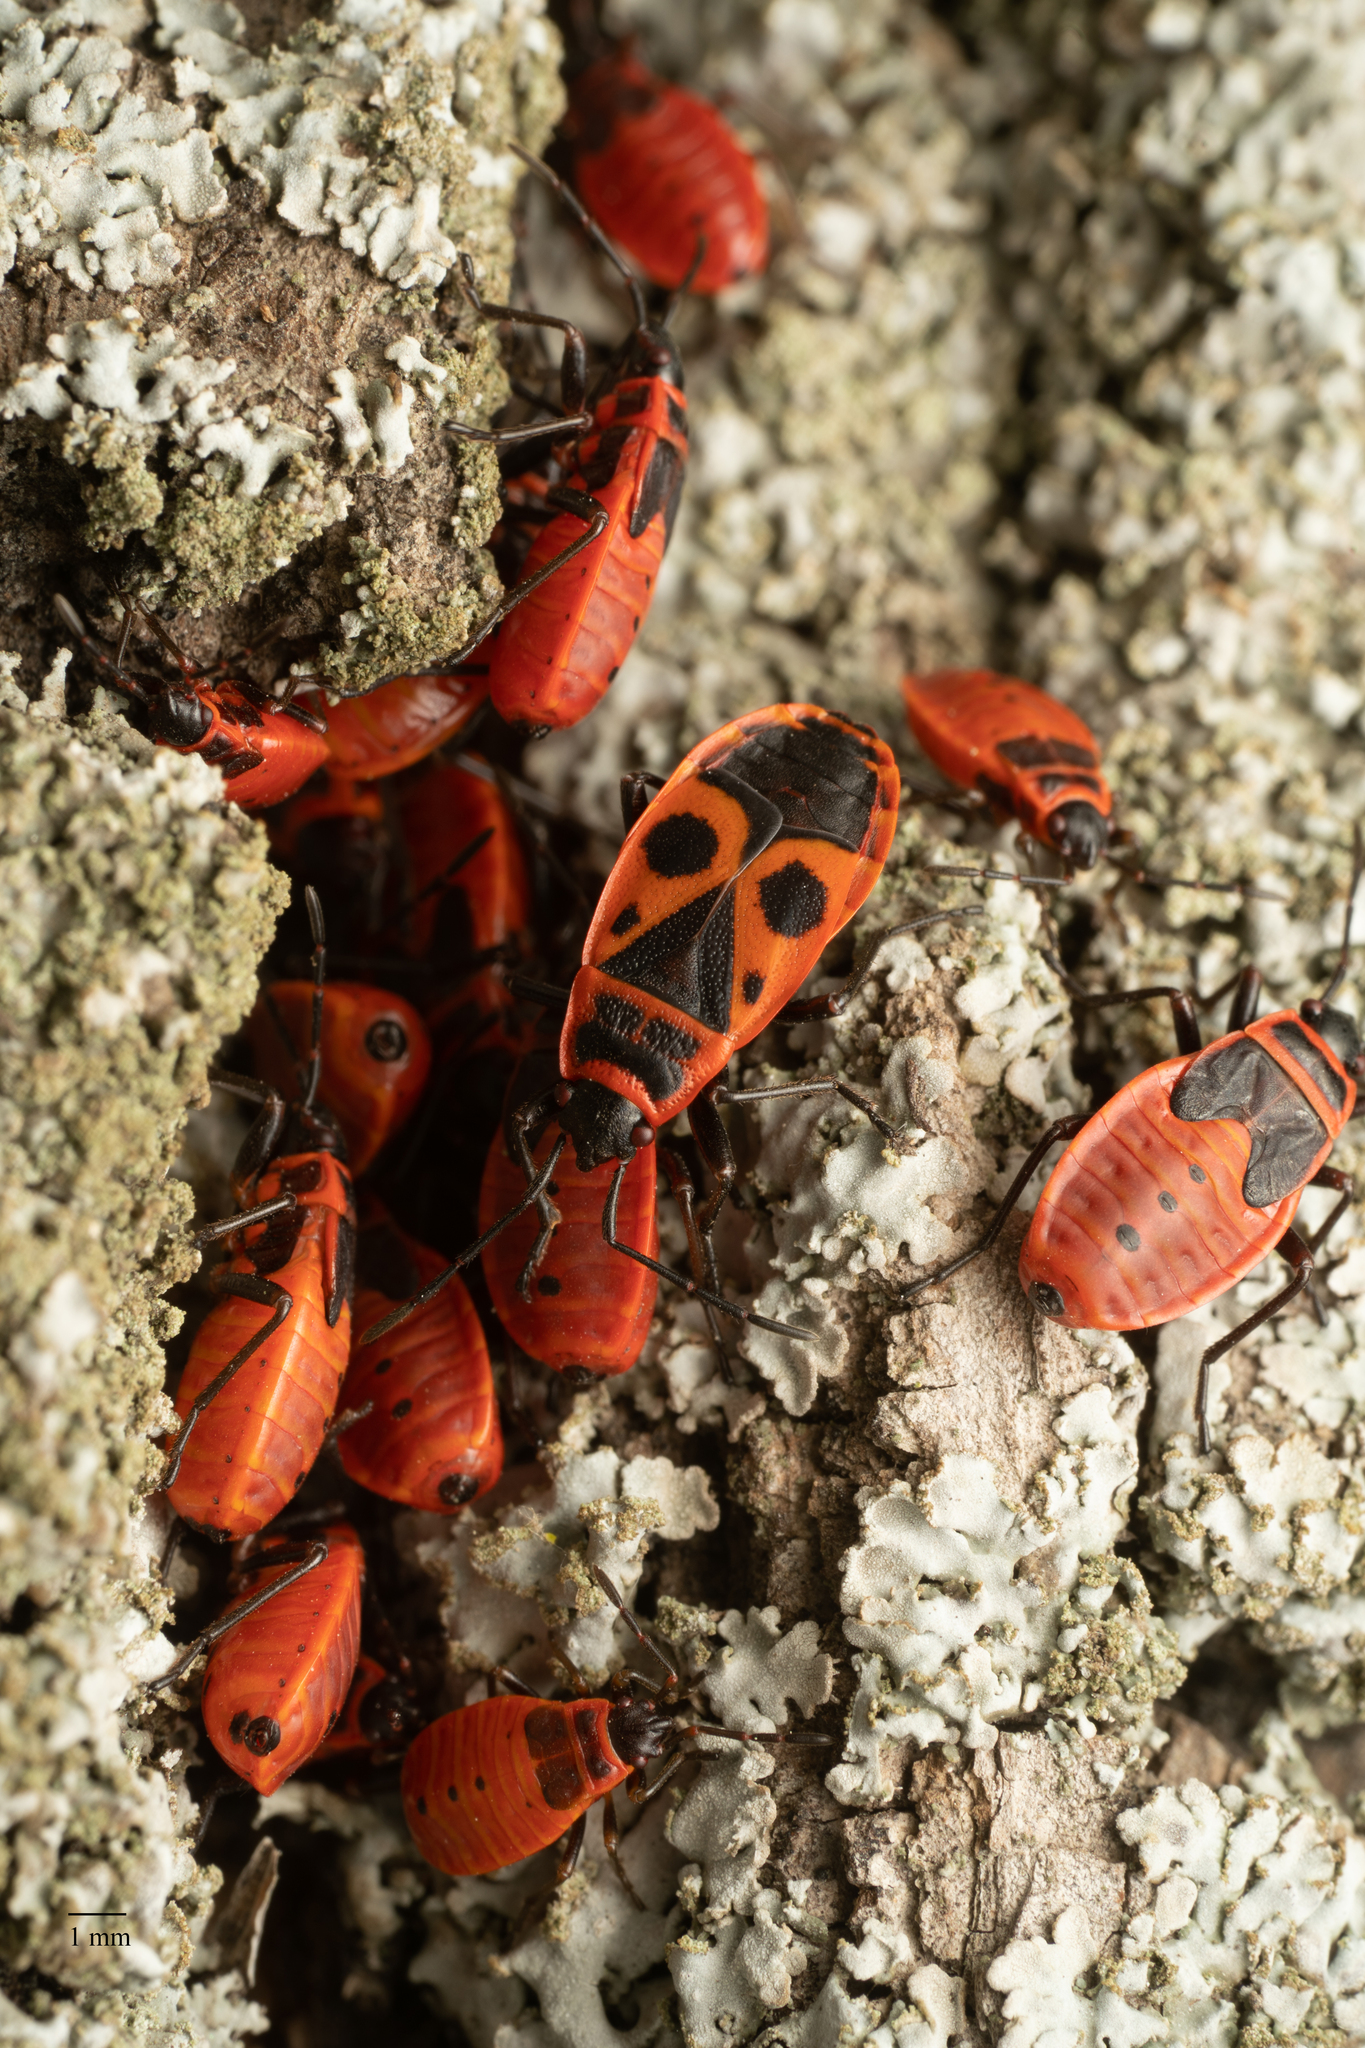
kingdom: Animalia
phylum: Arthropoda
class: Insecta
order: Hemiptera
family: Pyrrhocoridae
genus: Pyrrhocoris
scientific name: Pyrrhocoris apterus
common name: Firebug
